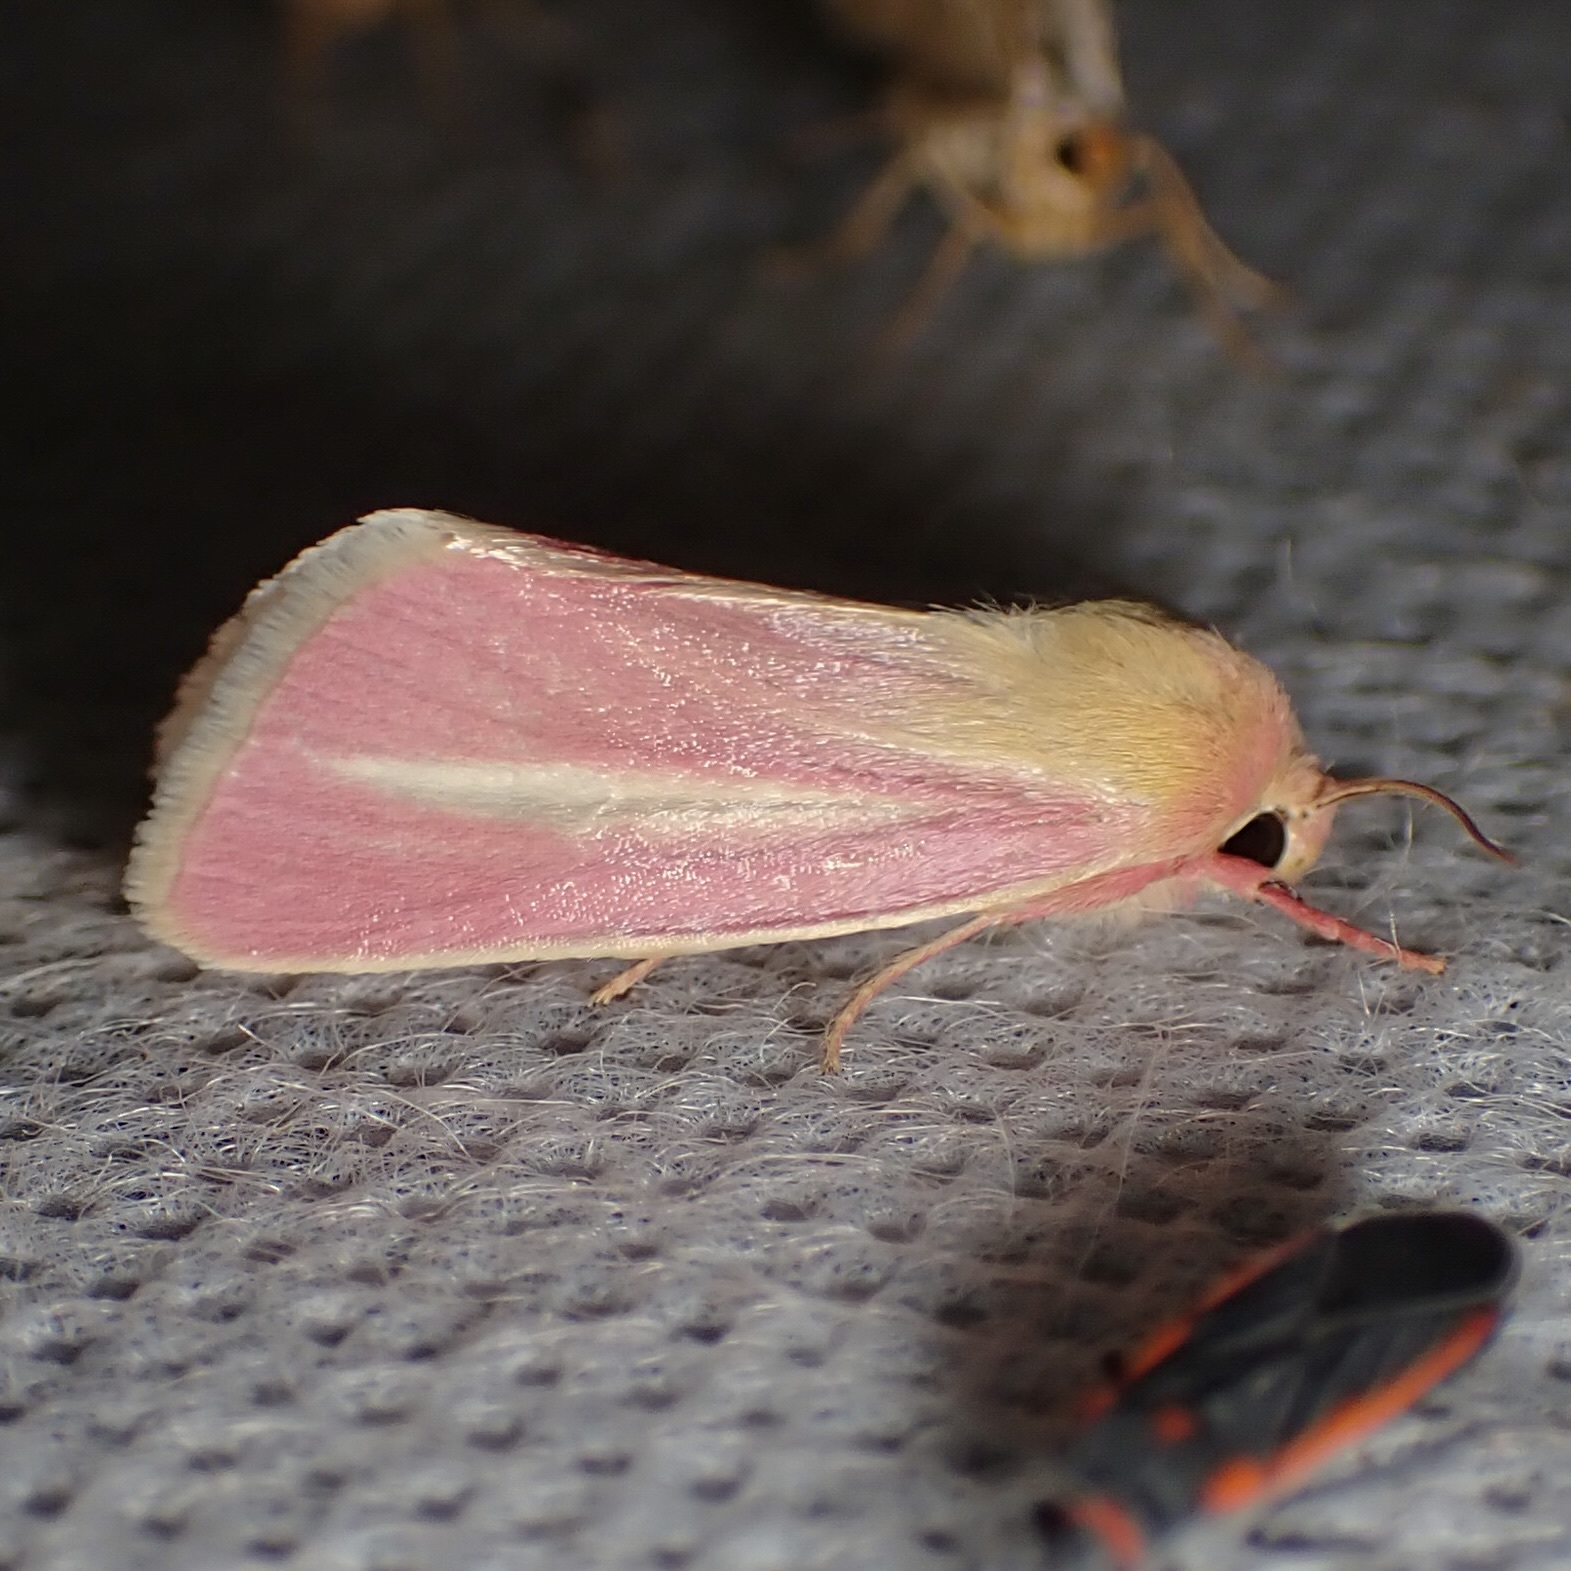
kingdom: Animalia
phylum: Arthropoda
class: Insecta
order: Lepidoptera
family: Noctuidae
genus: Heliocheilus
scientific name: Heliocheilus julia
